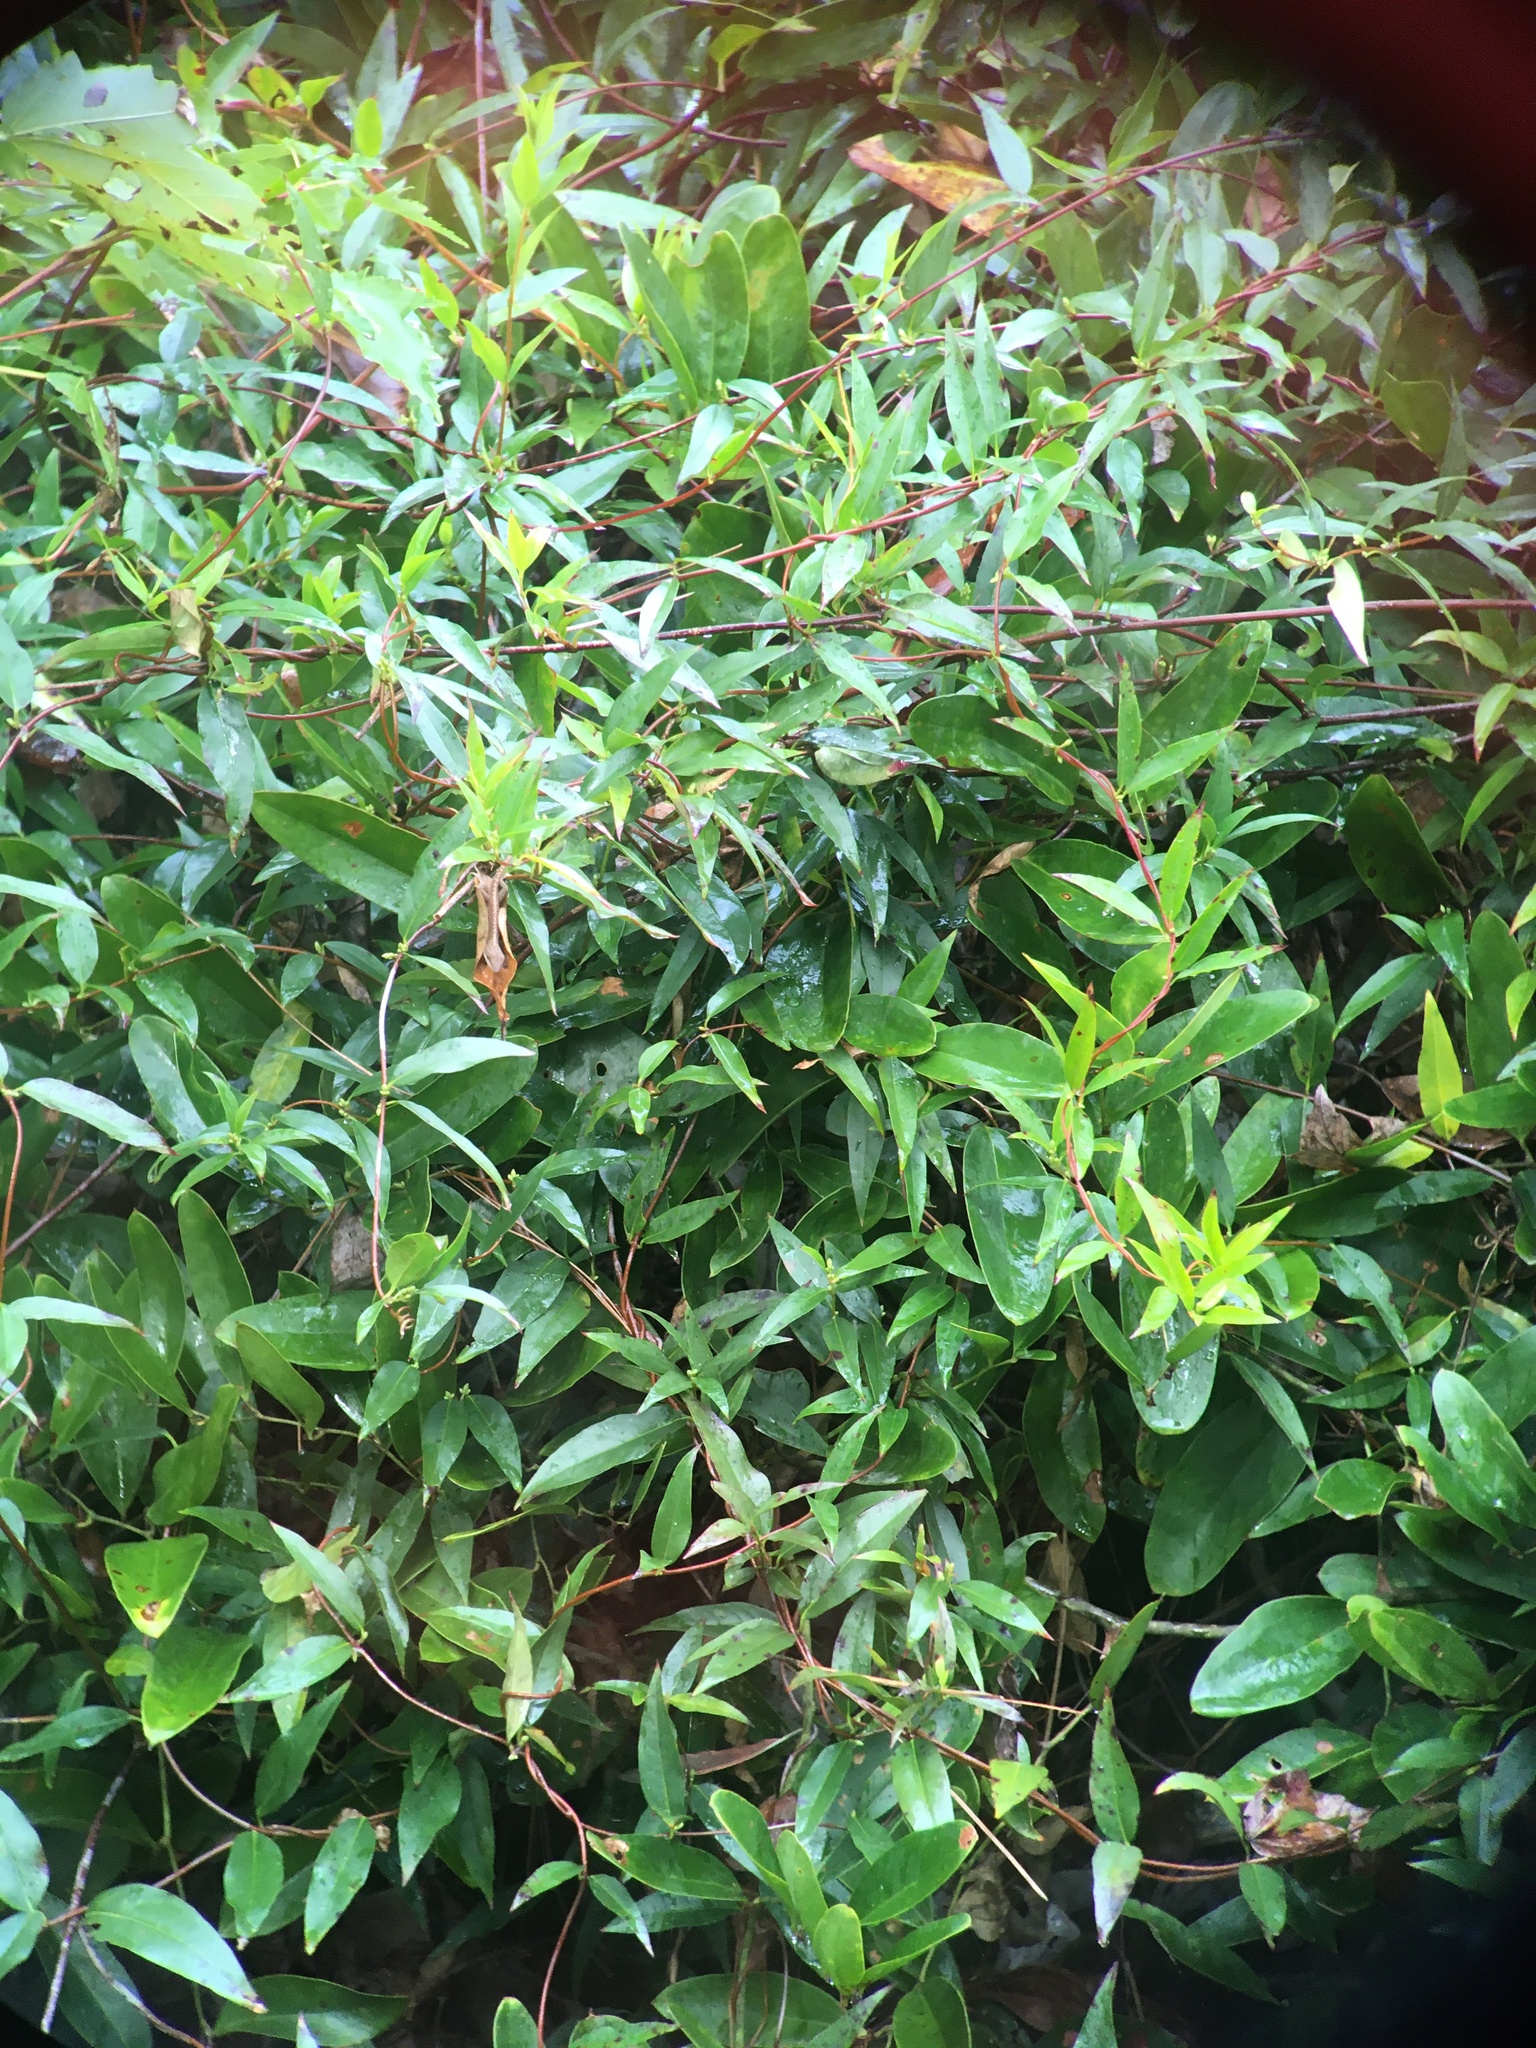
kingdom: Plantae
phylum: Tracheophyta
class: Magnoliopsida
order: Gentianales
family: Gelsemiaceae
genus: Gelsemium
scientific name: Gelsemium sempervirens
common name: Carolina-jasmine
